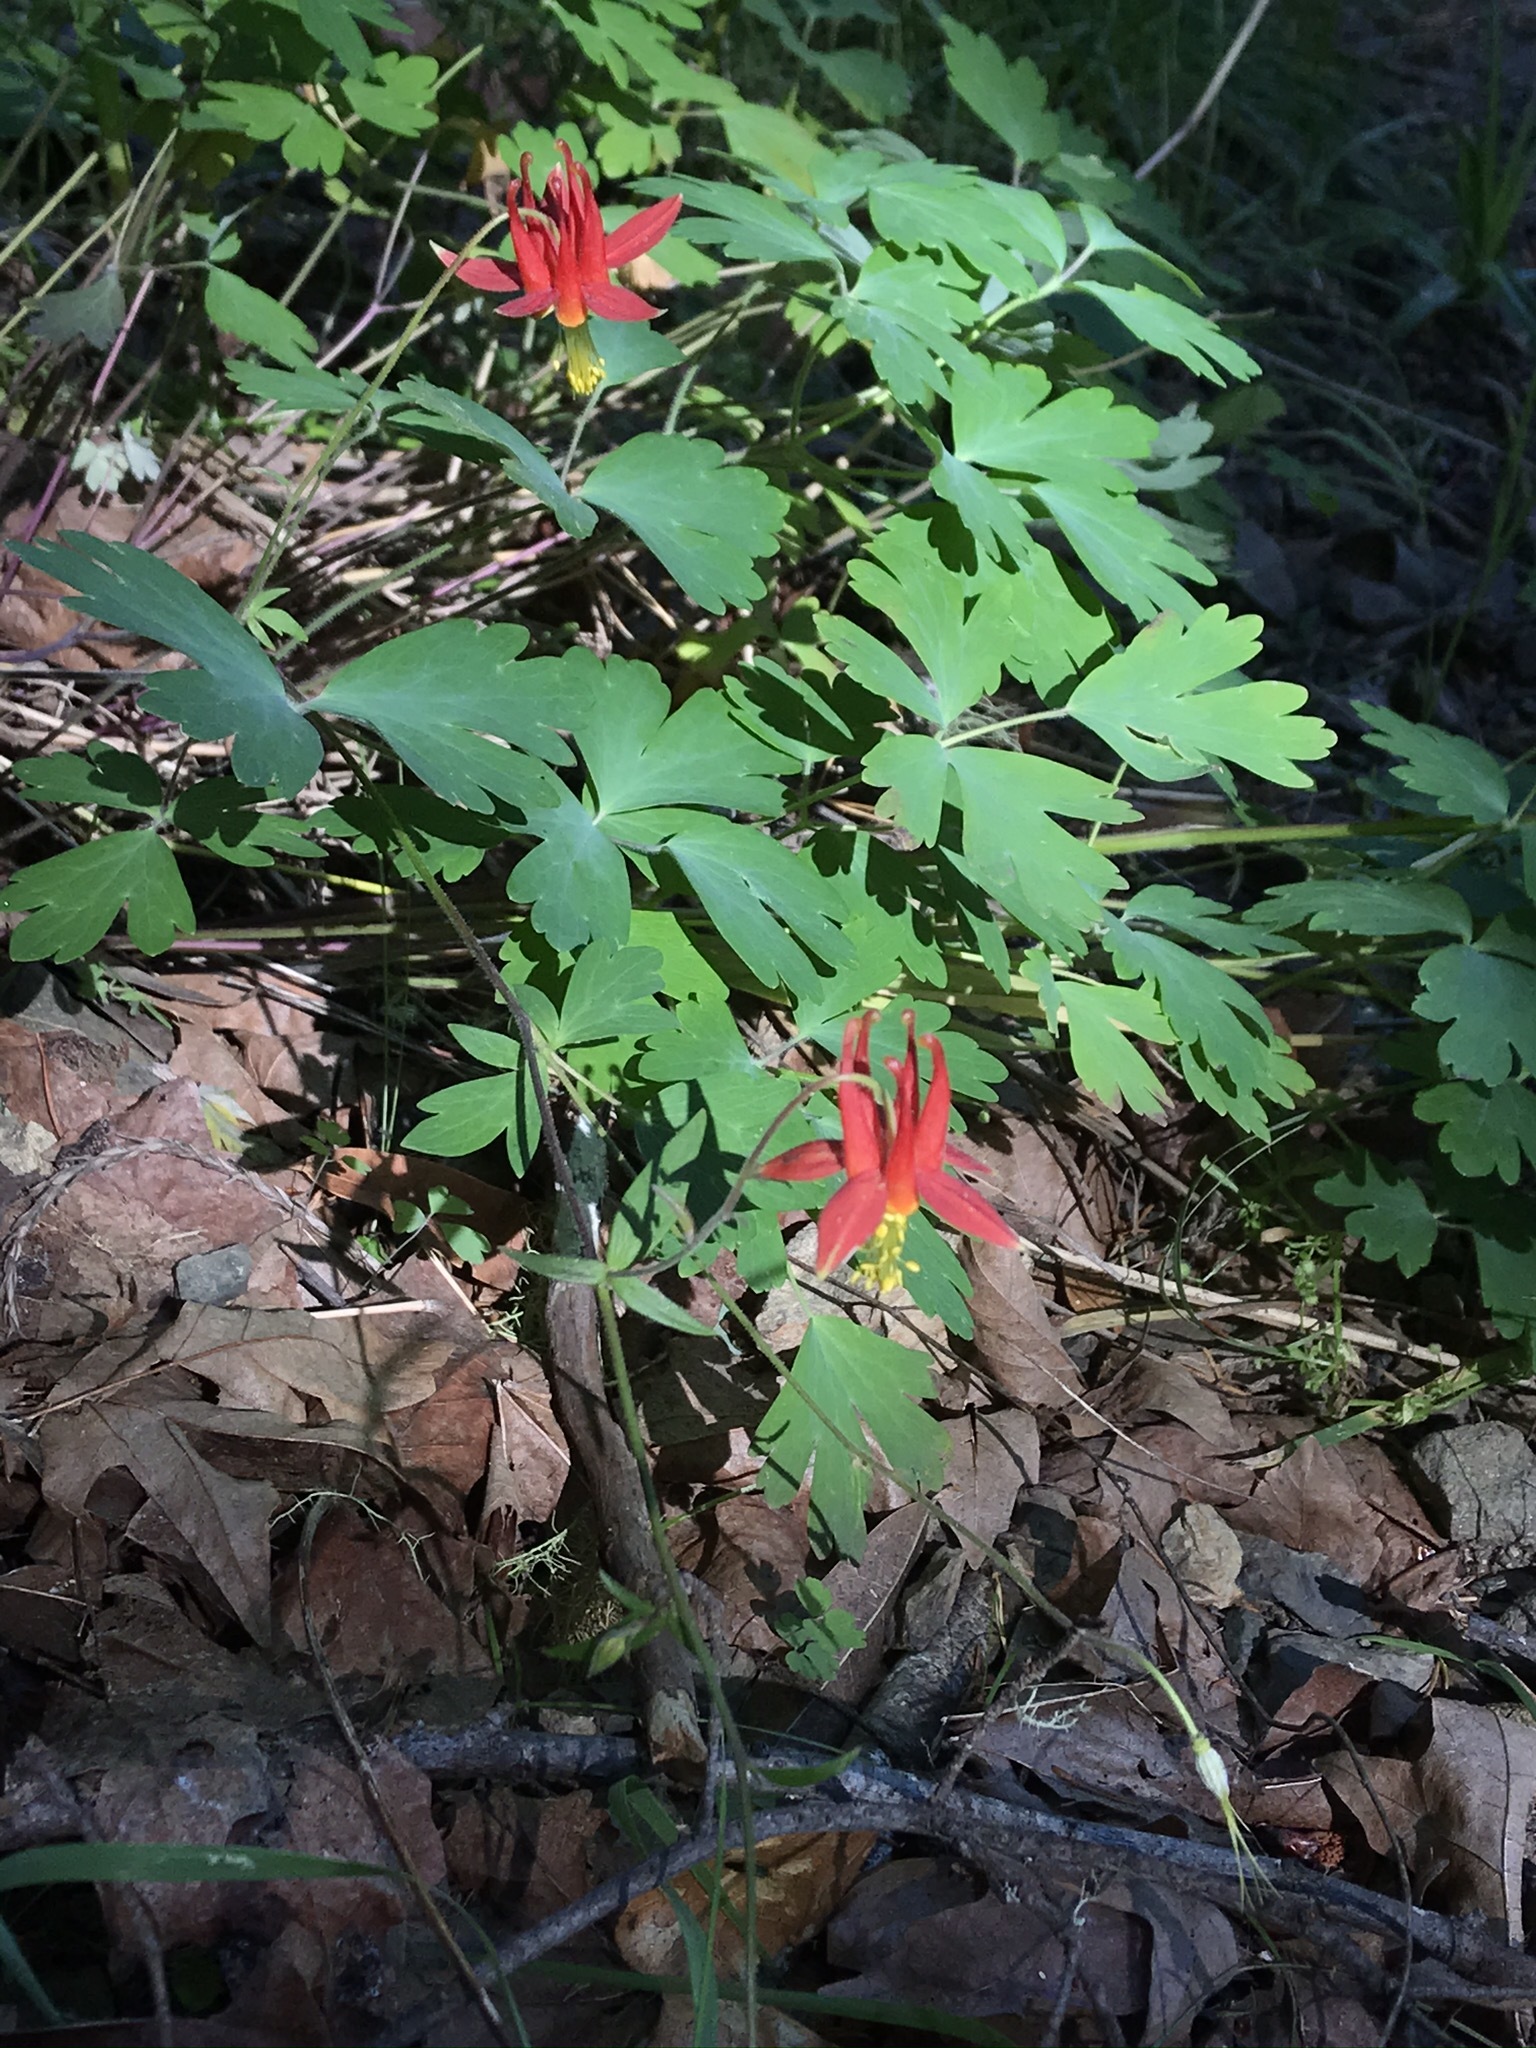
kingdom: Plantae
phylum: Tracheophyta
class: Magnoliopsida
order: Ranunculales
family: Ranunculaceae
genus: Aquilegia
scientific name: Aquilegia formosa
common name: Sitka columbine
